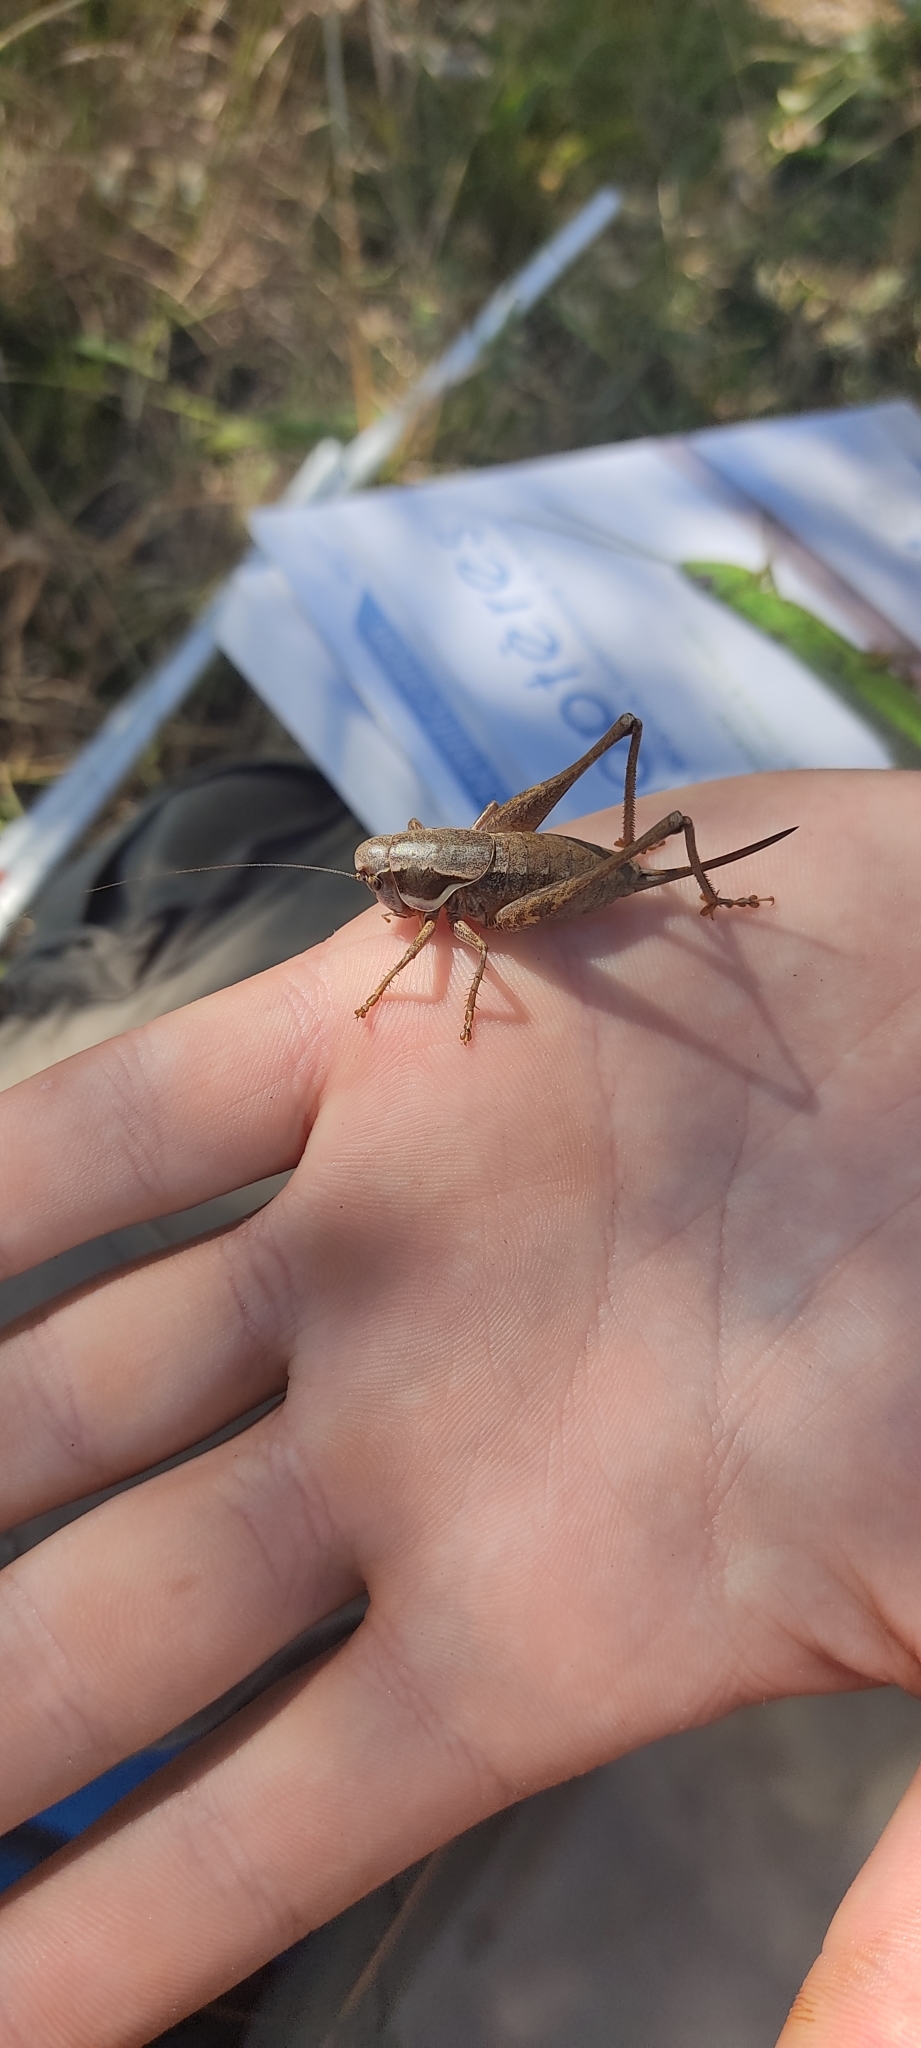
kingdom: Animalia
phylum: Arthropoda
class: Insecta
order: Orthoptera
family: Tettigoniidae
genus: Pholidoptera
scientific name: Pholidoptera femorata
